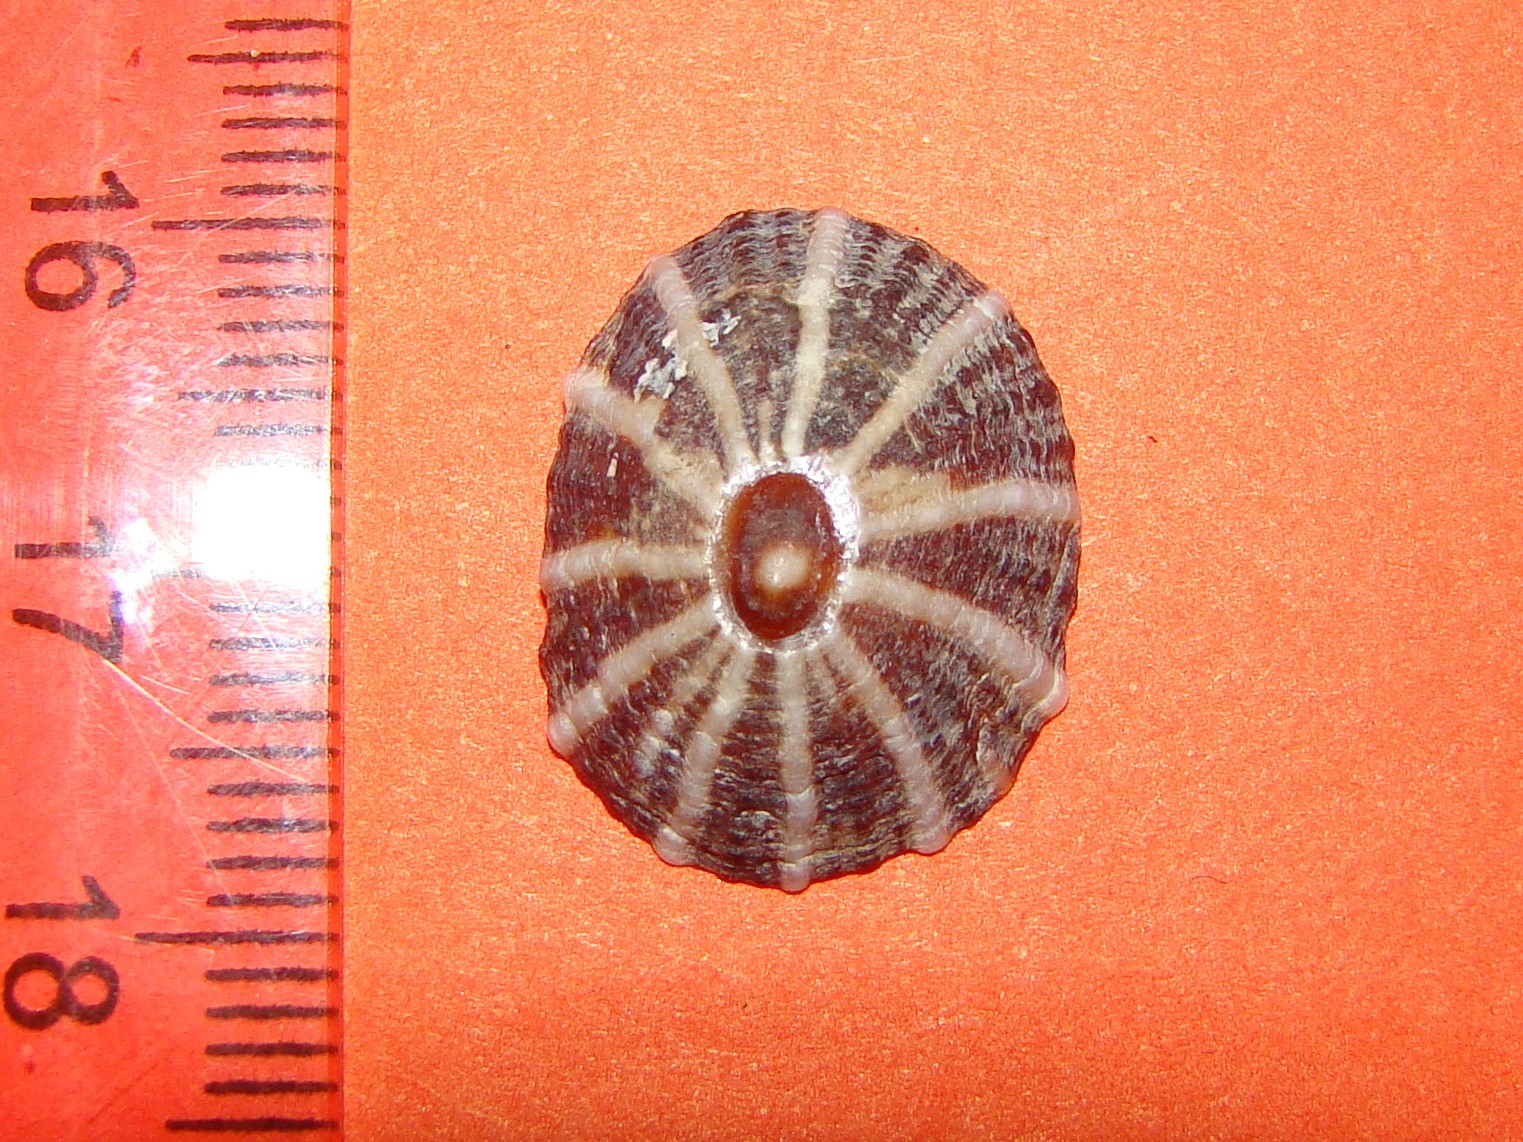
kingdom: Animalia
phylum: Mollusca
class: Gastropoda
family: Nacellidae
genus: Cellana
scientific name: Cellana stellifera
